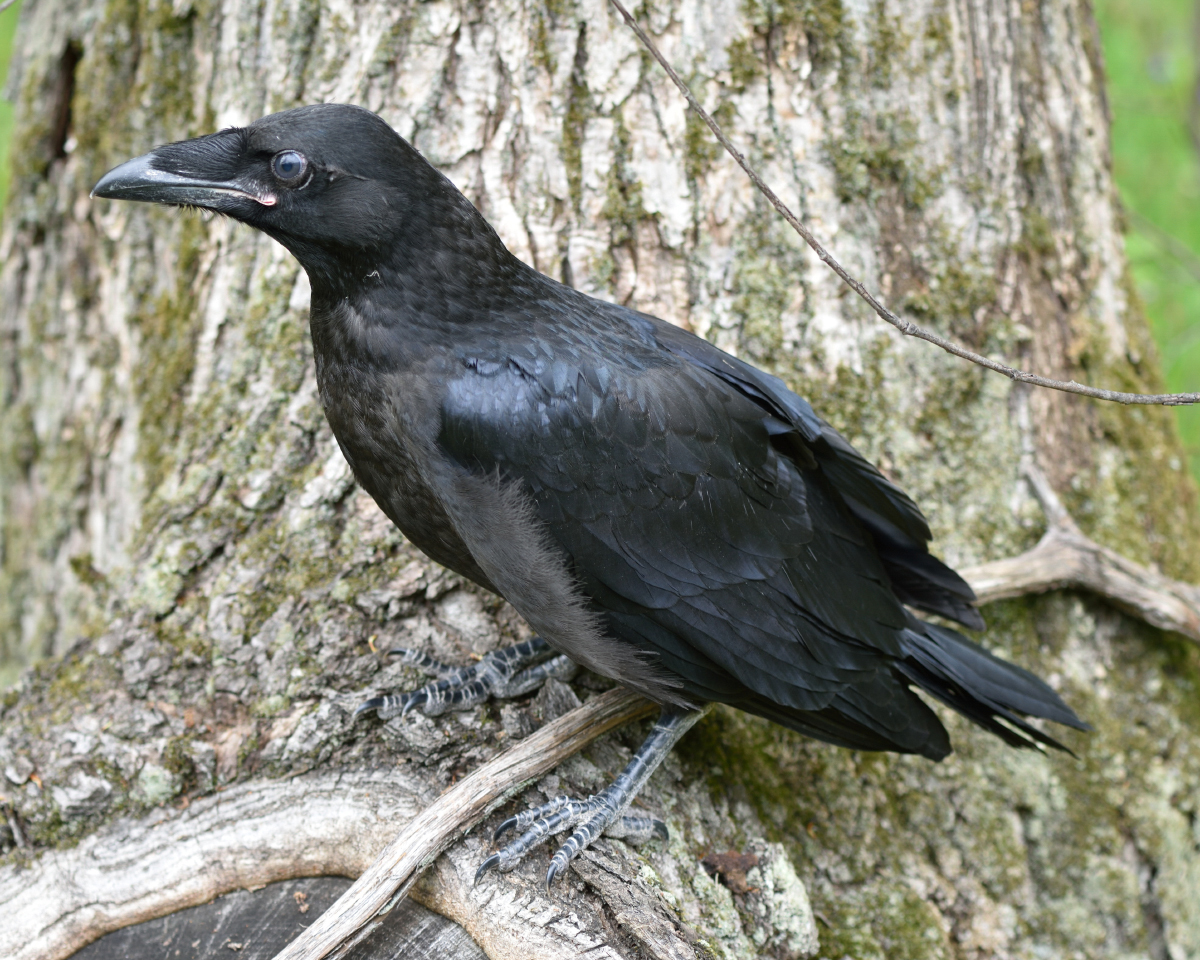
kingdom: Animalia
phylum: Chordata
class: Aves
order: Passeriformes
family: Corvidae
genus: Corvus
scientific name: Corvus corax
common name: Common raven
